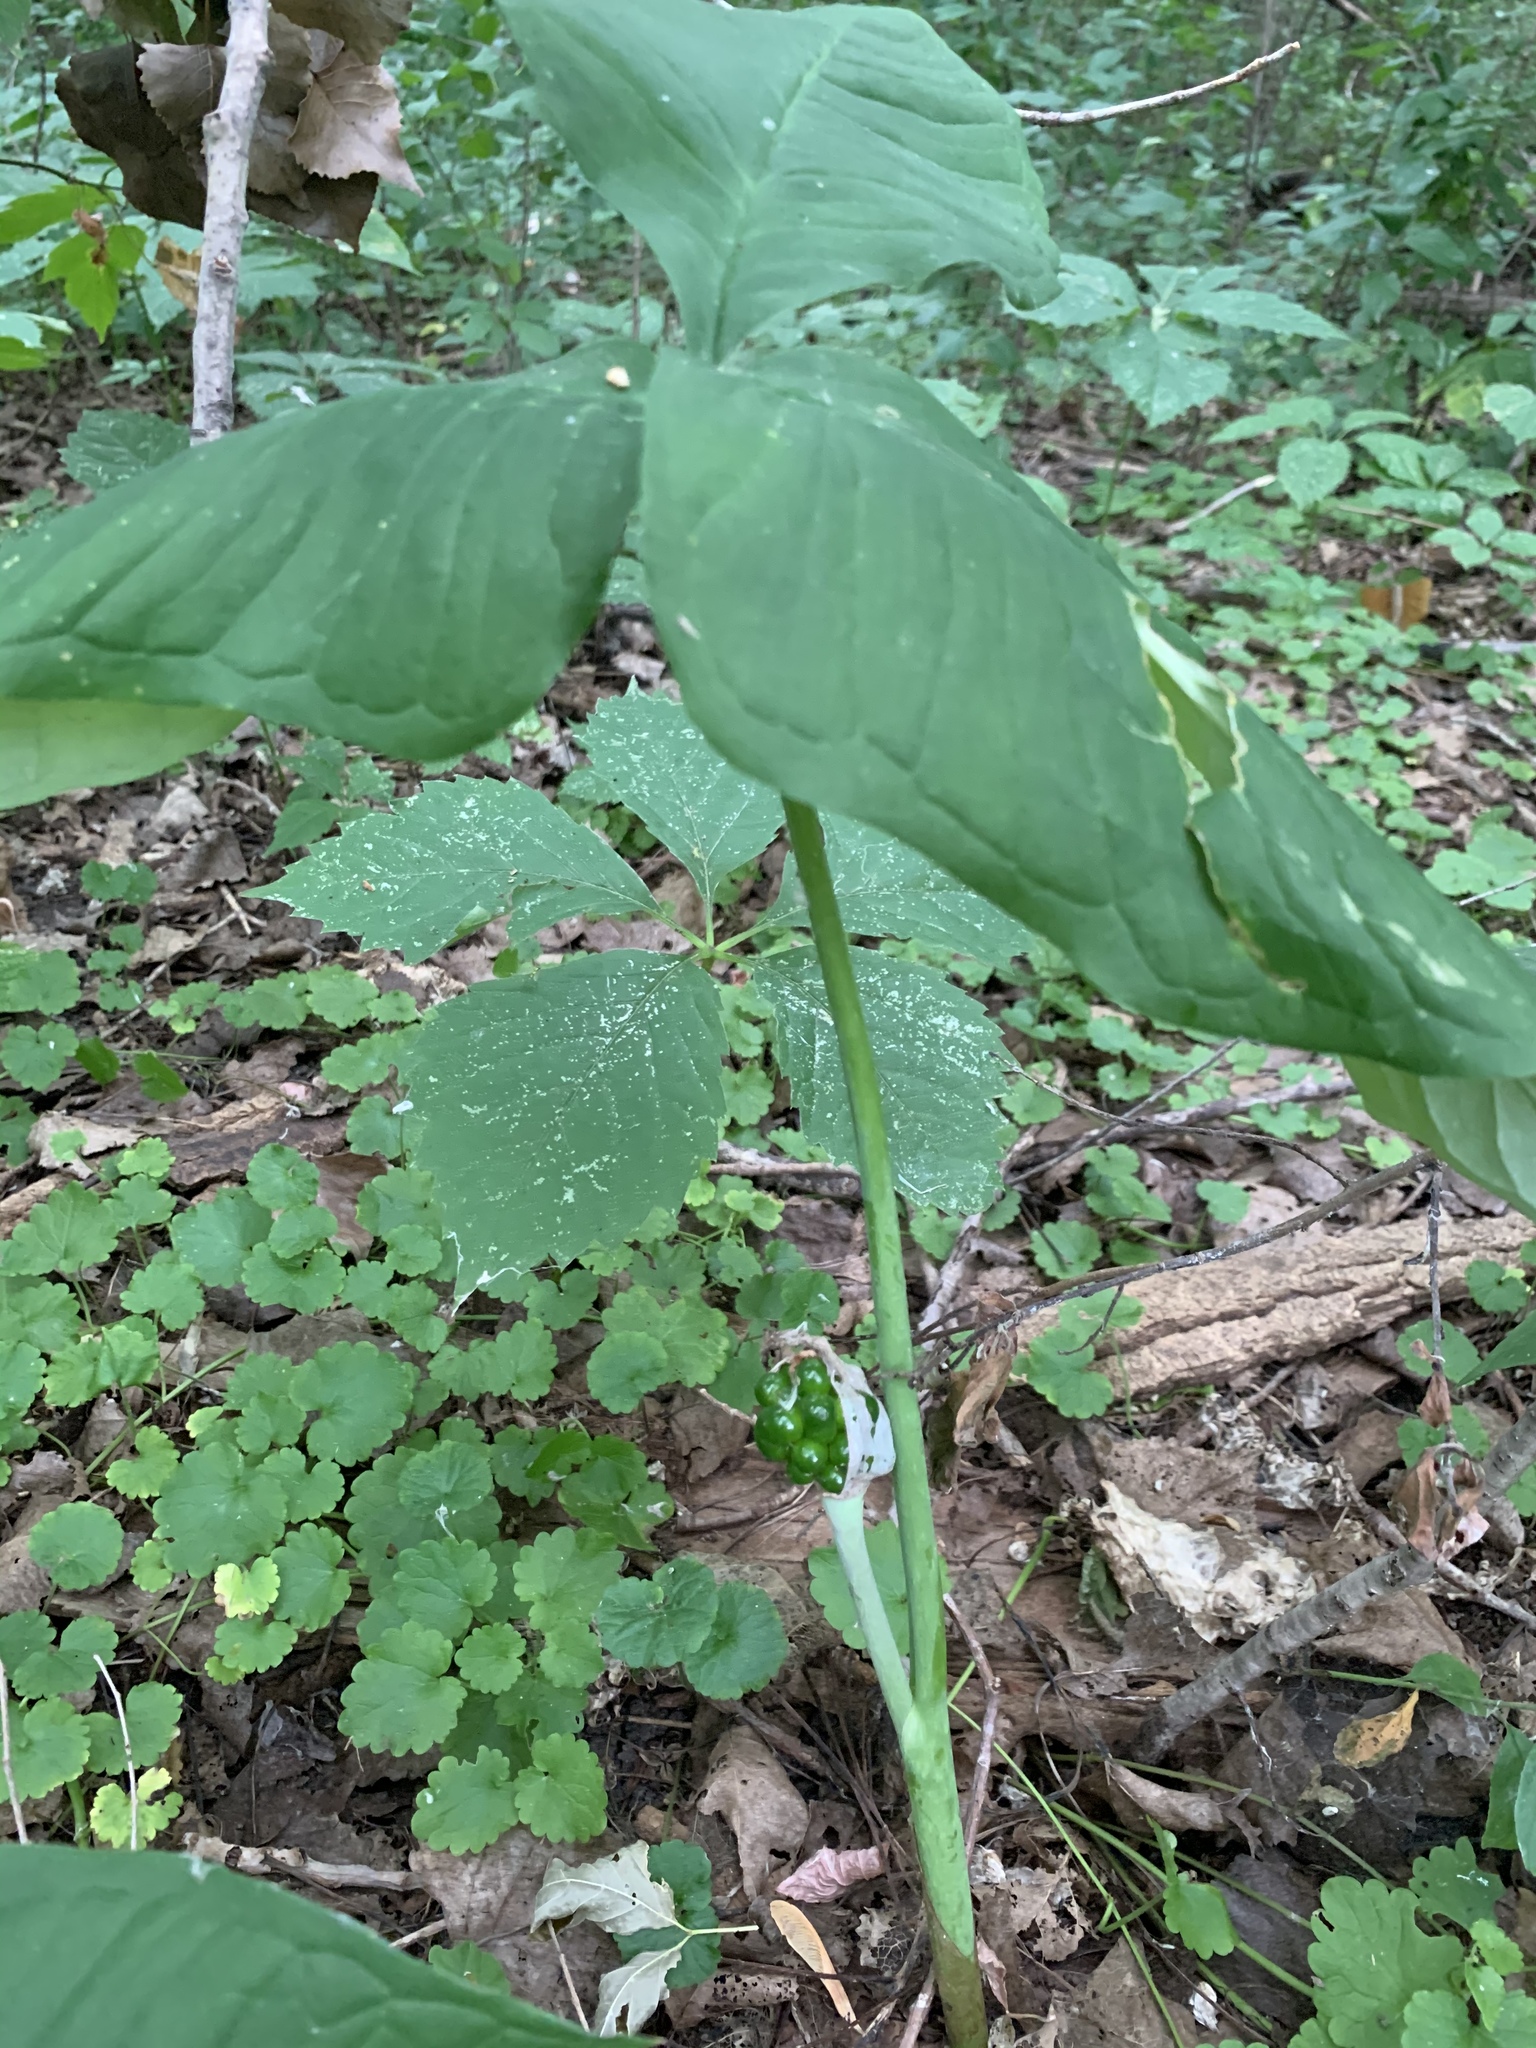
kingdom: Plantae
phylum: Tracheophyta
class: Liliopsida
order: Alismatales
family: Araceae
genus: Arisaema
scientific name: Arisaema triphyllum
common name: Jack-in-the-pulpit
